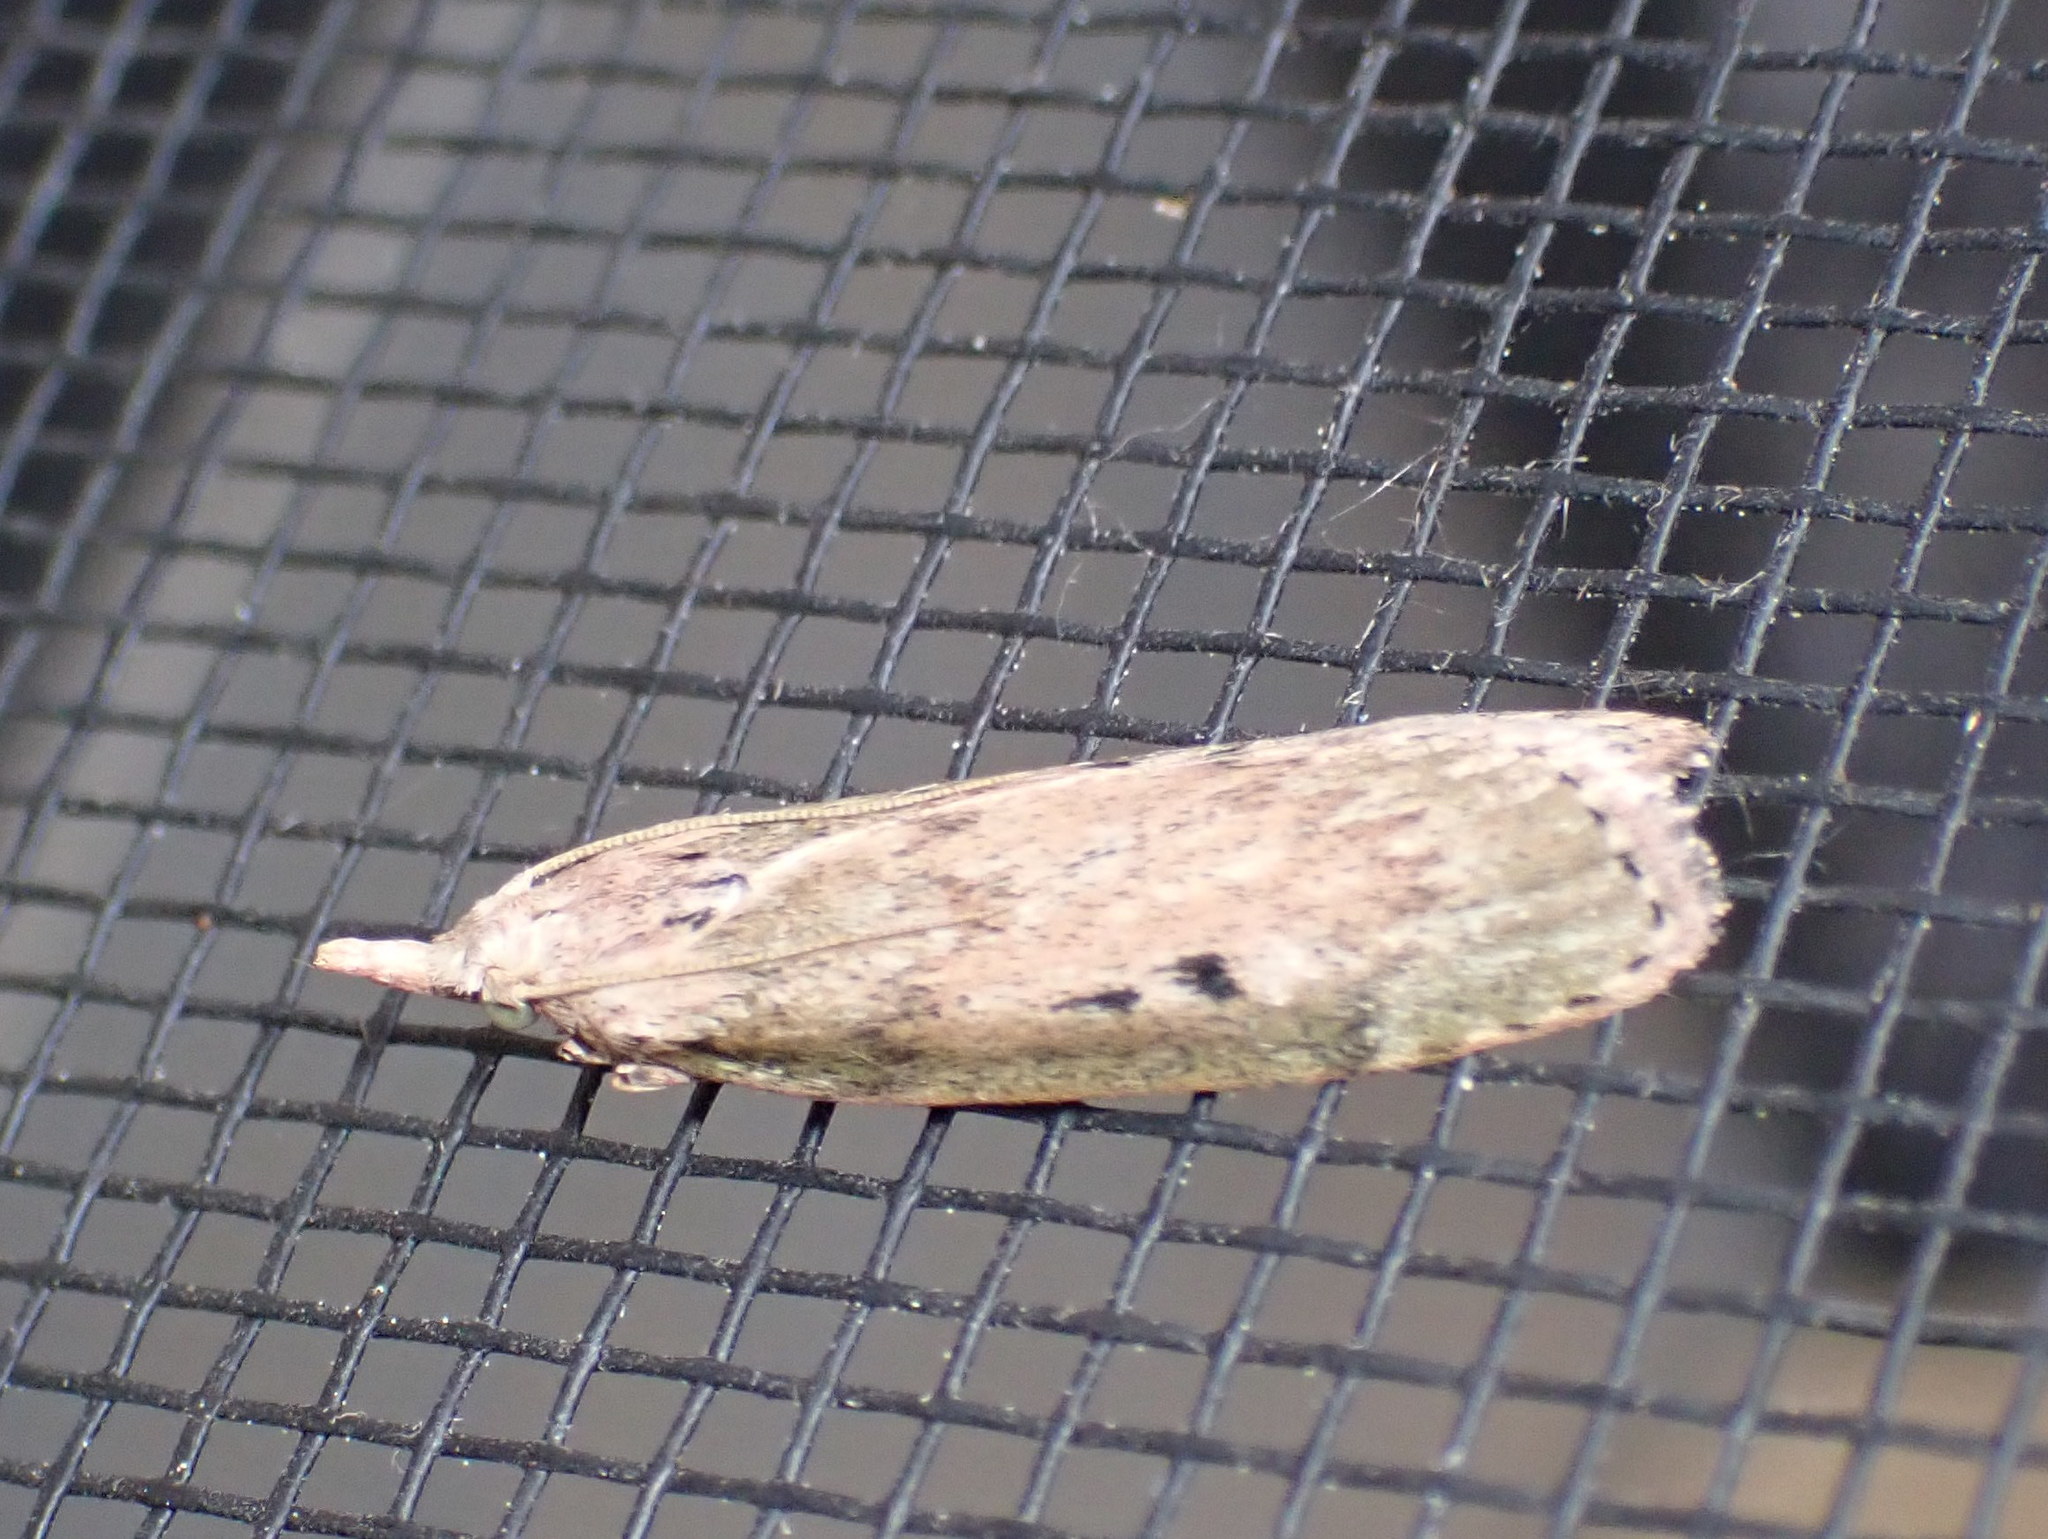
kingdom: Animalia
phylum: Arthropoda
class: Insecta
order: Lepidoptera
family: Pyralidae
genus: Aphomia
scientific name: Aphomia sociella
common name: Bee moth
